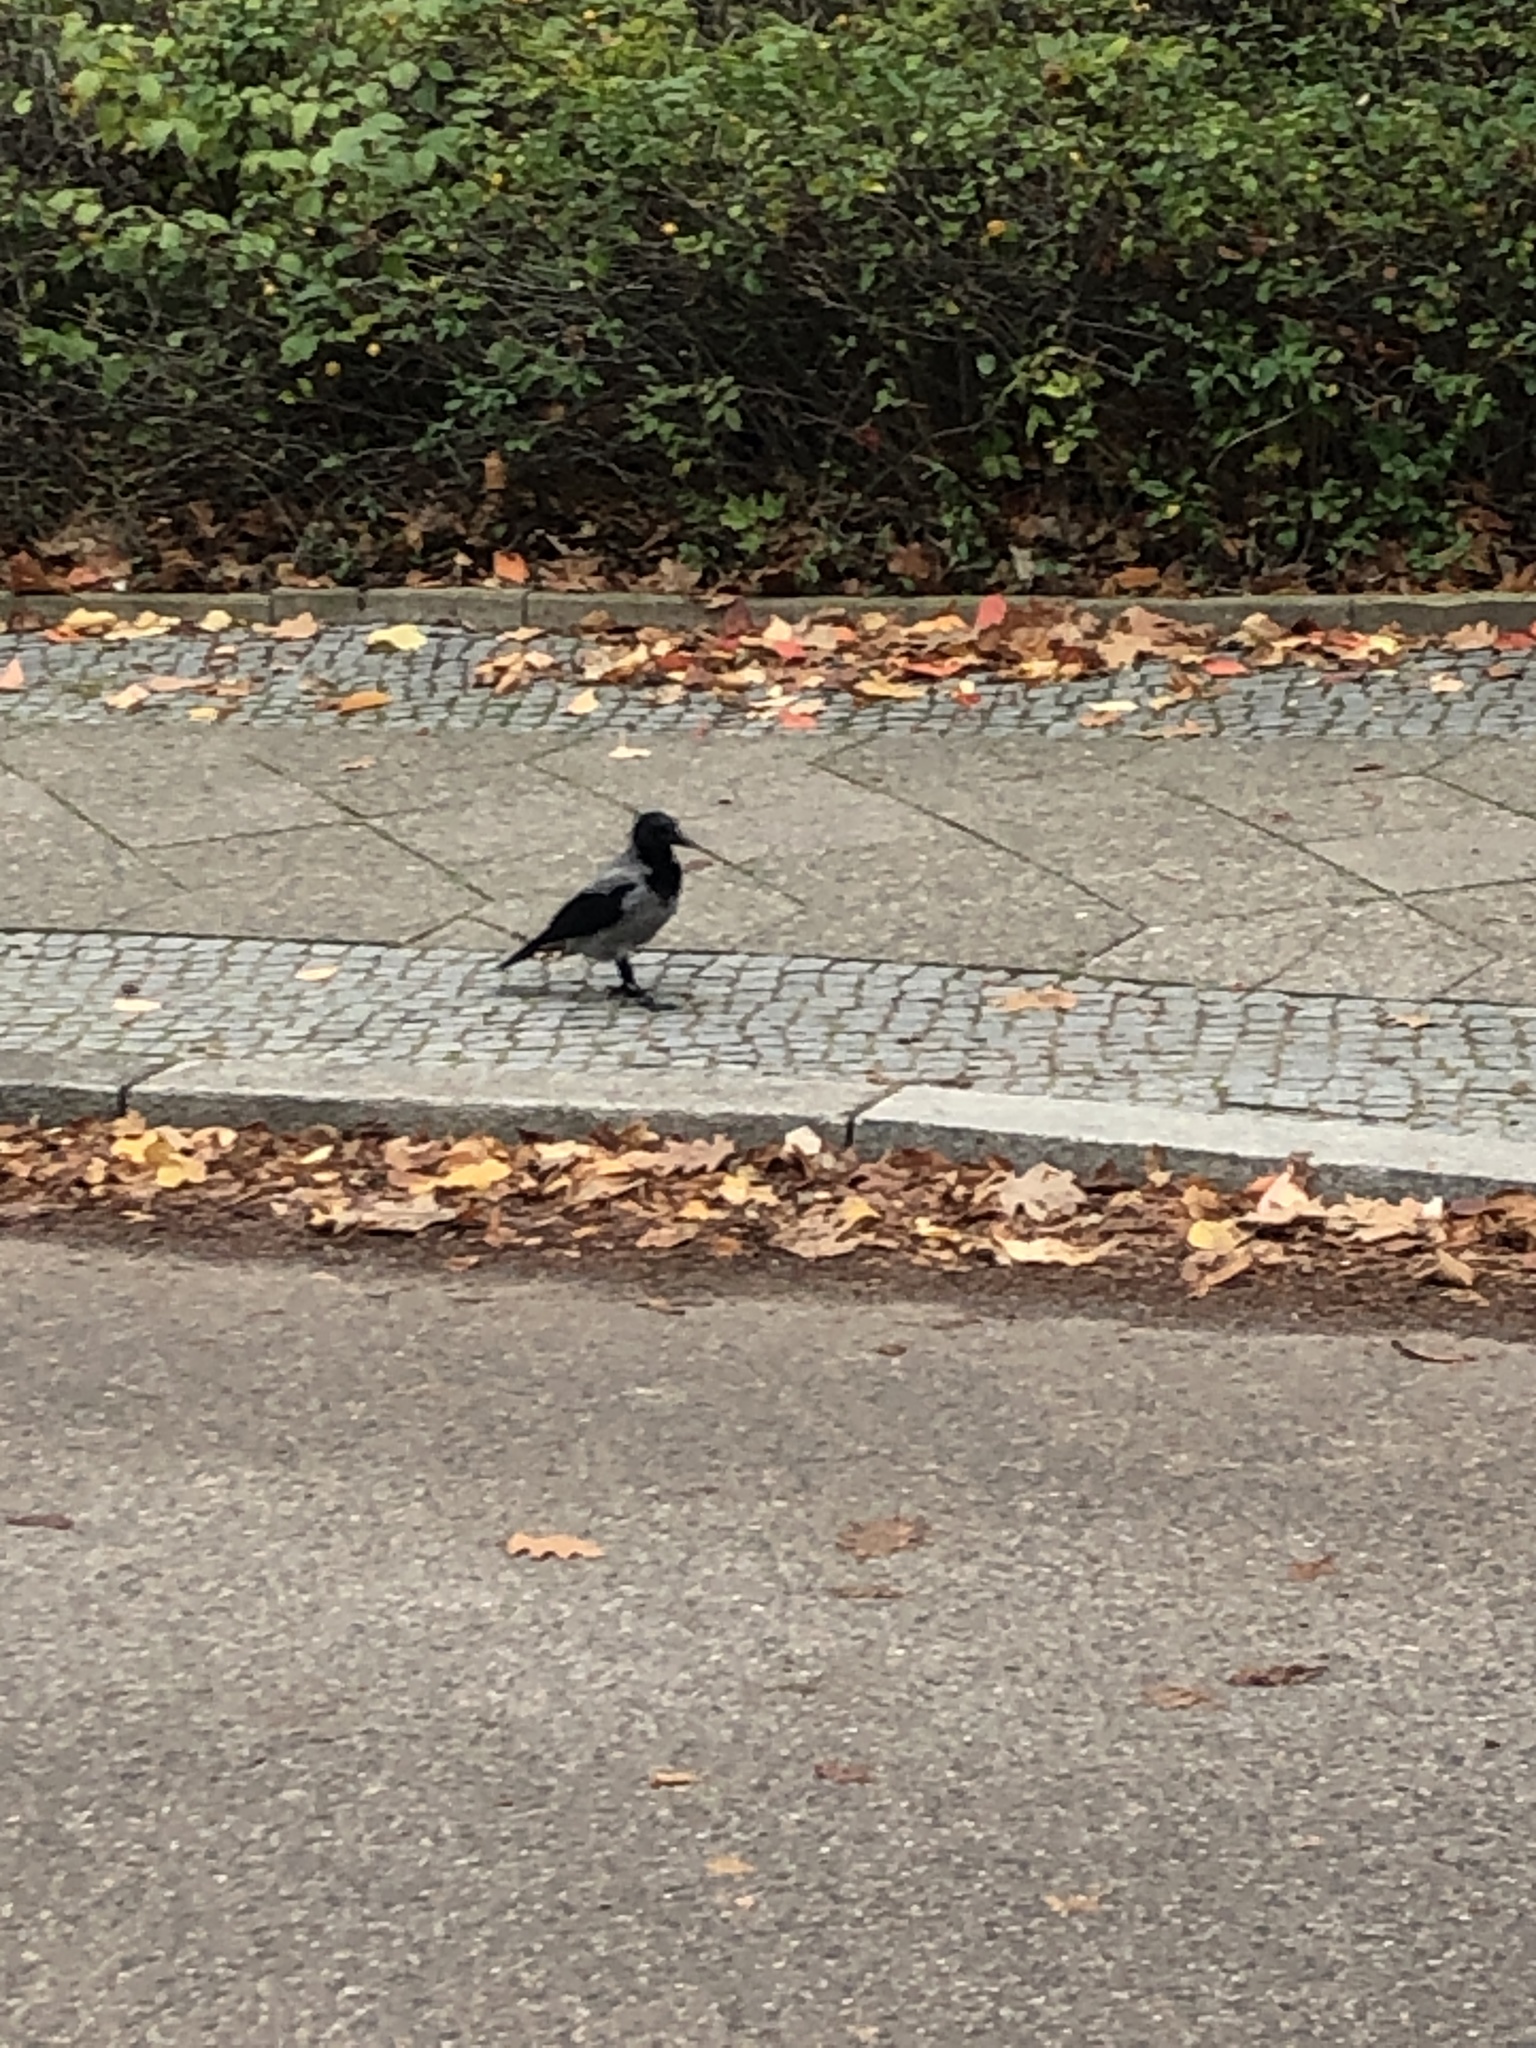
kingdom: Animalia
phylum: Chordata
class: Aves
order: Passeriformes
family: Corvidae
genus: Corvus
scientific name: Corvus cornix
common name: Hooded crow
